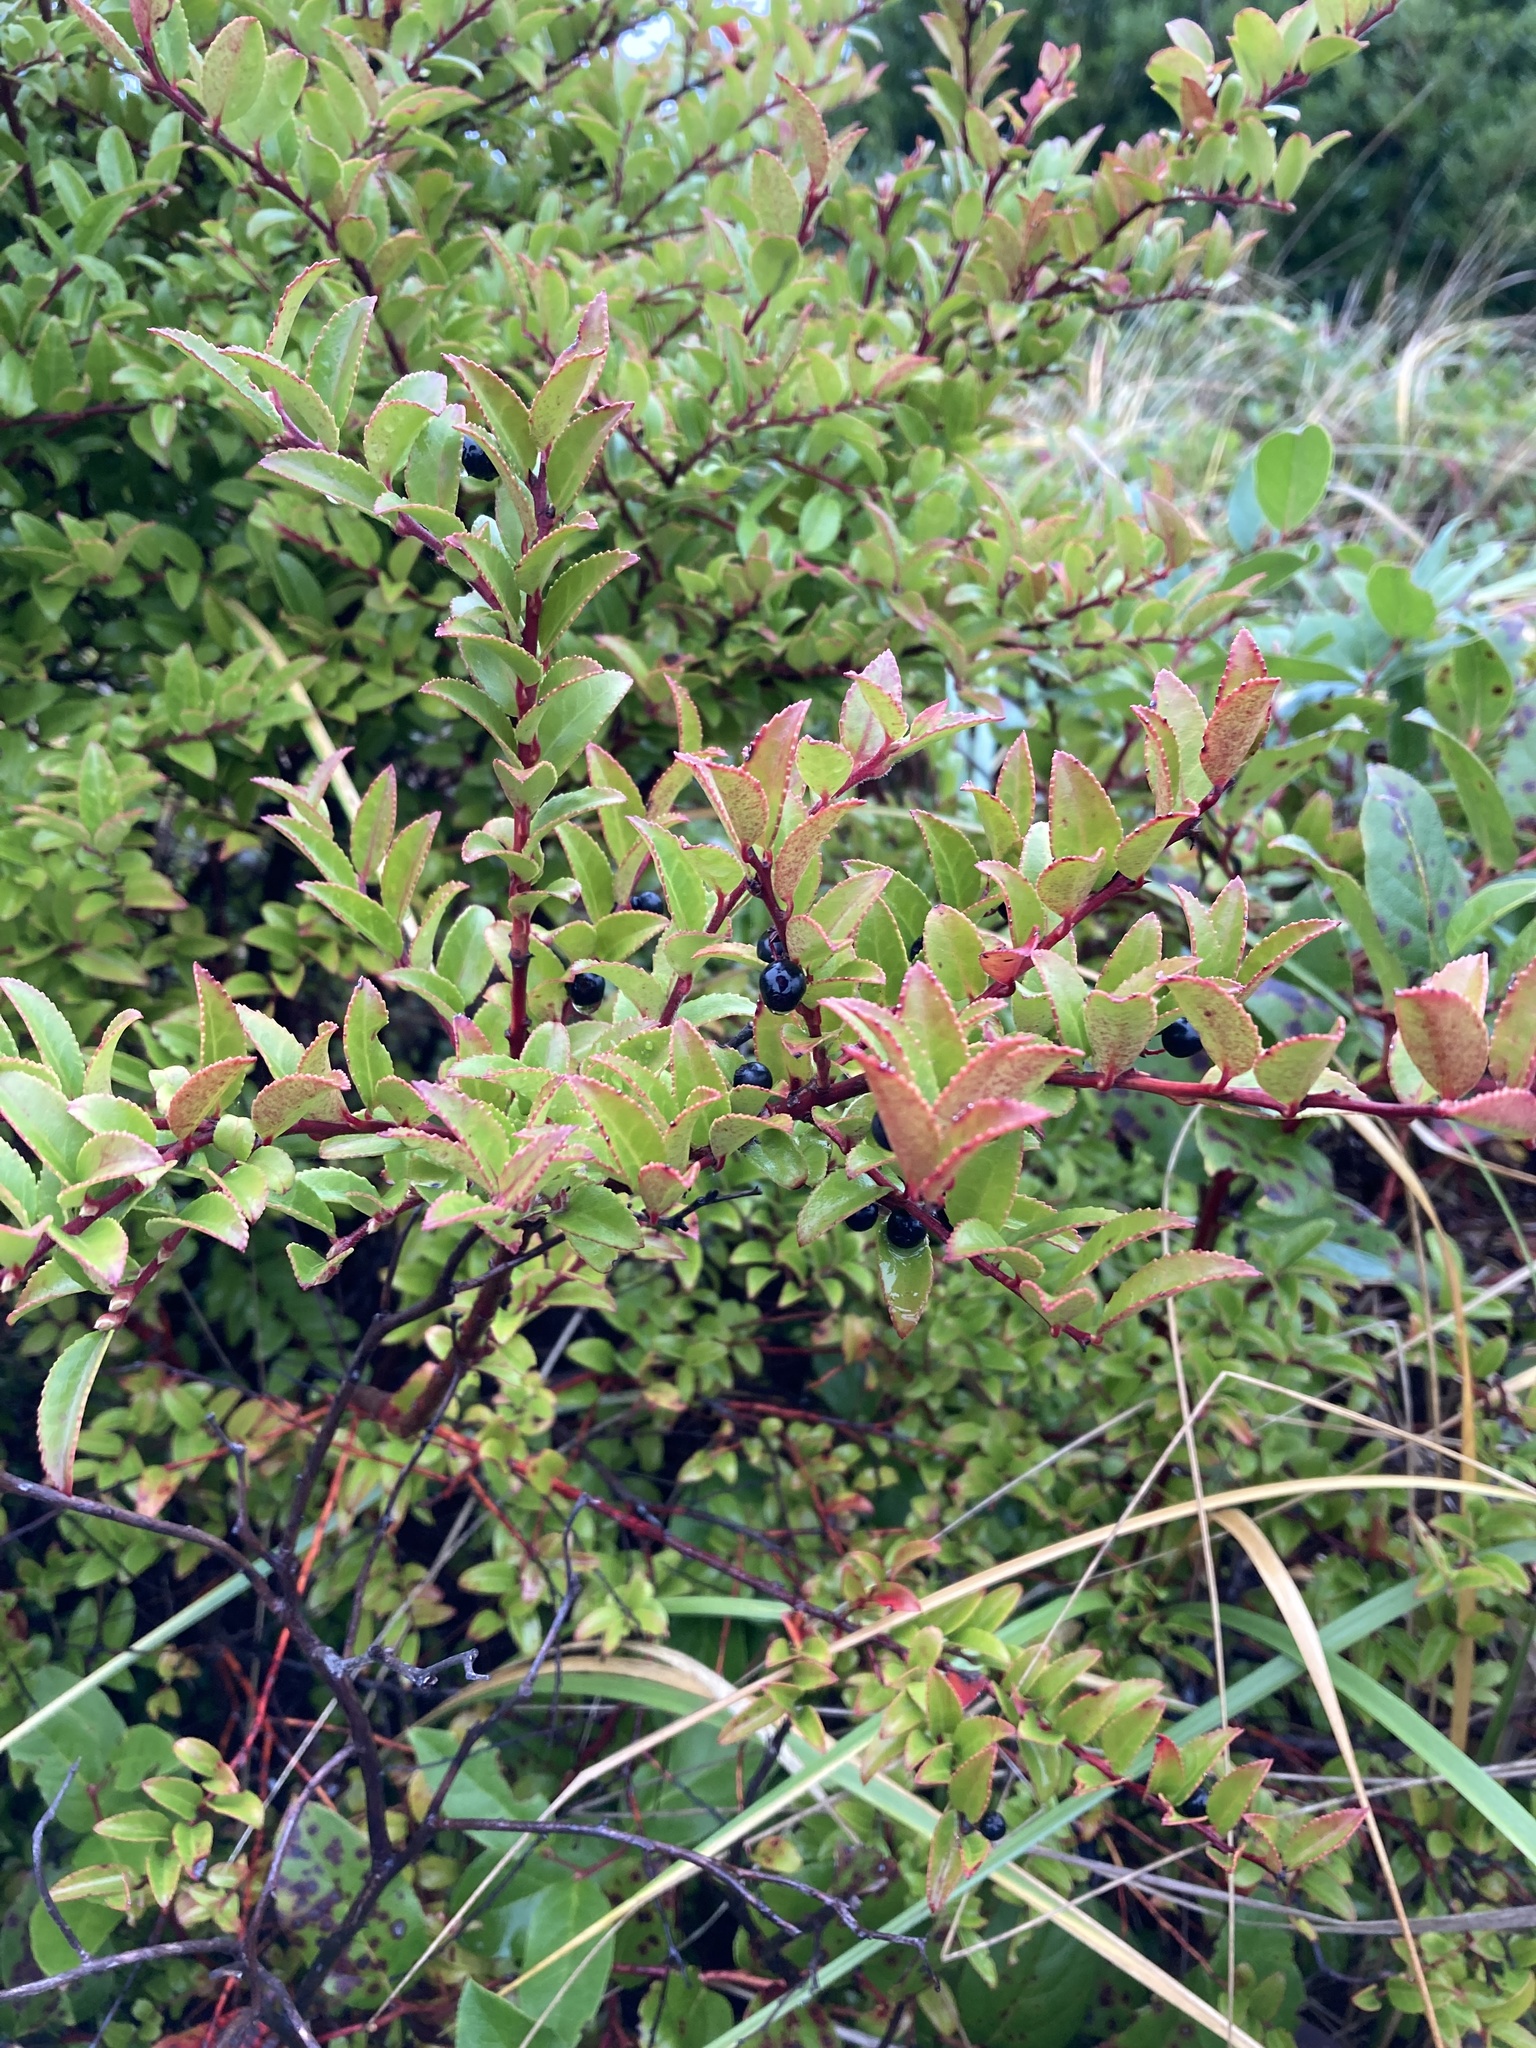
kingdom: Plantae
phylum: Tracheophyta
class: Magnoliopsida
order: Ericales
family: Ericaceae
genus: Vaccinium
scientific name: Vaccinium ovatum
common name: California-huckleberry
